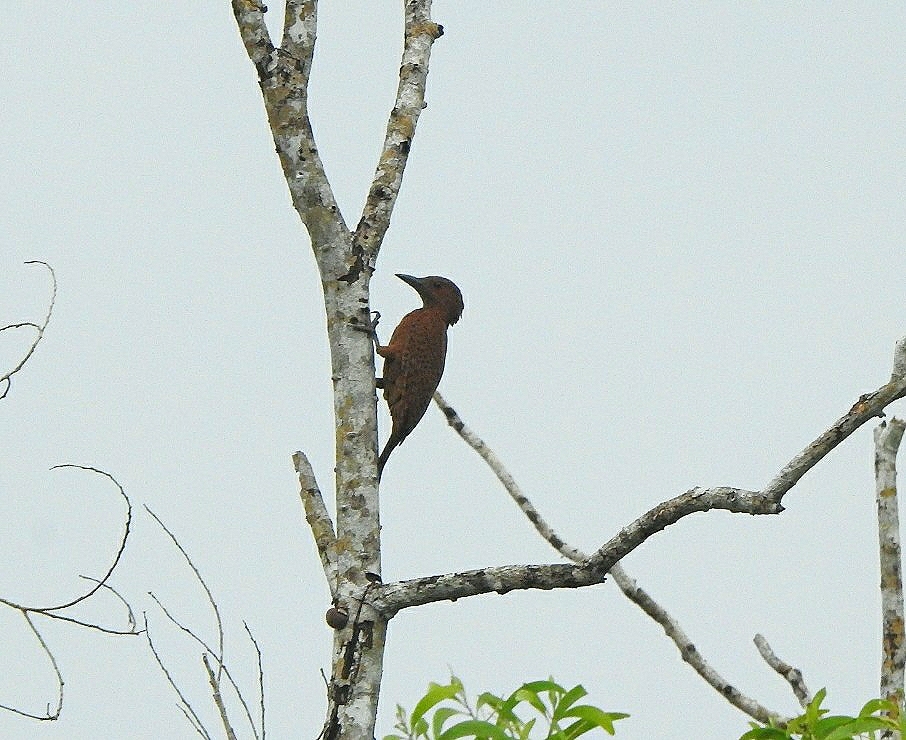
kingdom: Animalia
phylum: Chordata
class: Aves
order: Piciformes
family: Picidae
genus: Micropternus
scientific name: Micropternus brachyurus
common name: Rufous woodpecker
